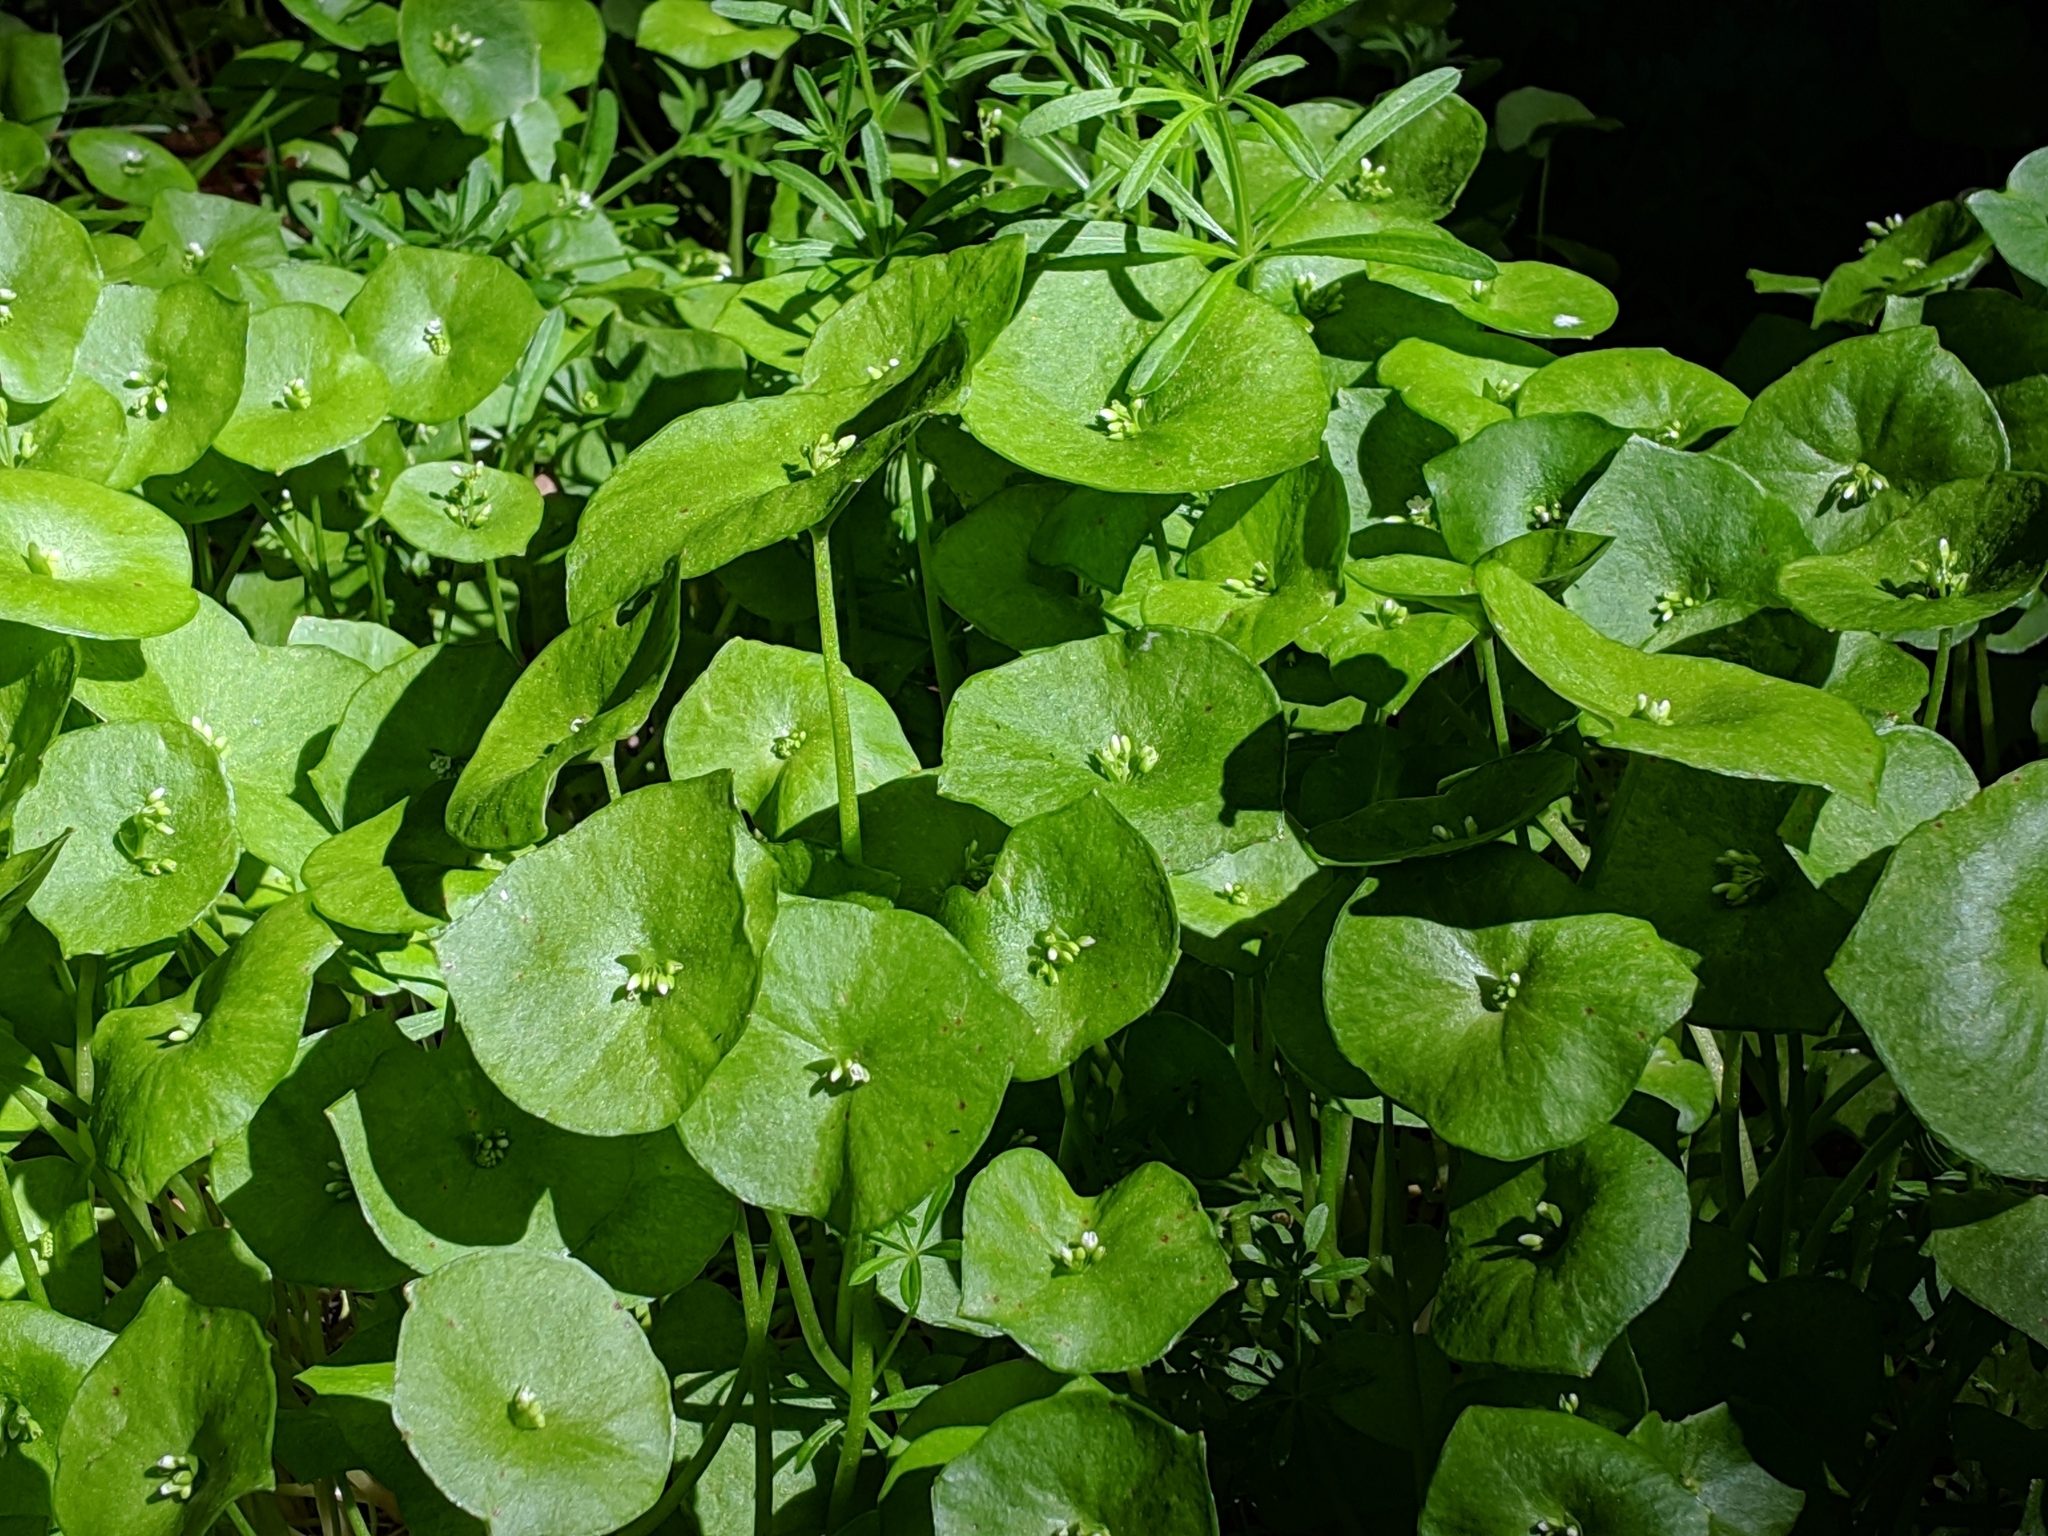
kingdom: Plantae
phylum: Tracheophyta
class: Magnoliopsida
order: Caryophyllales
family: Montiaceae
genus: Claytonia
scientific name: Claytonia perfoliata
